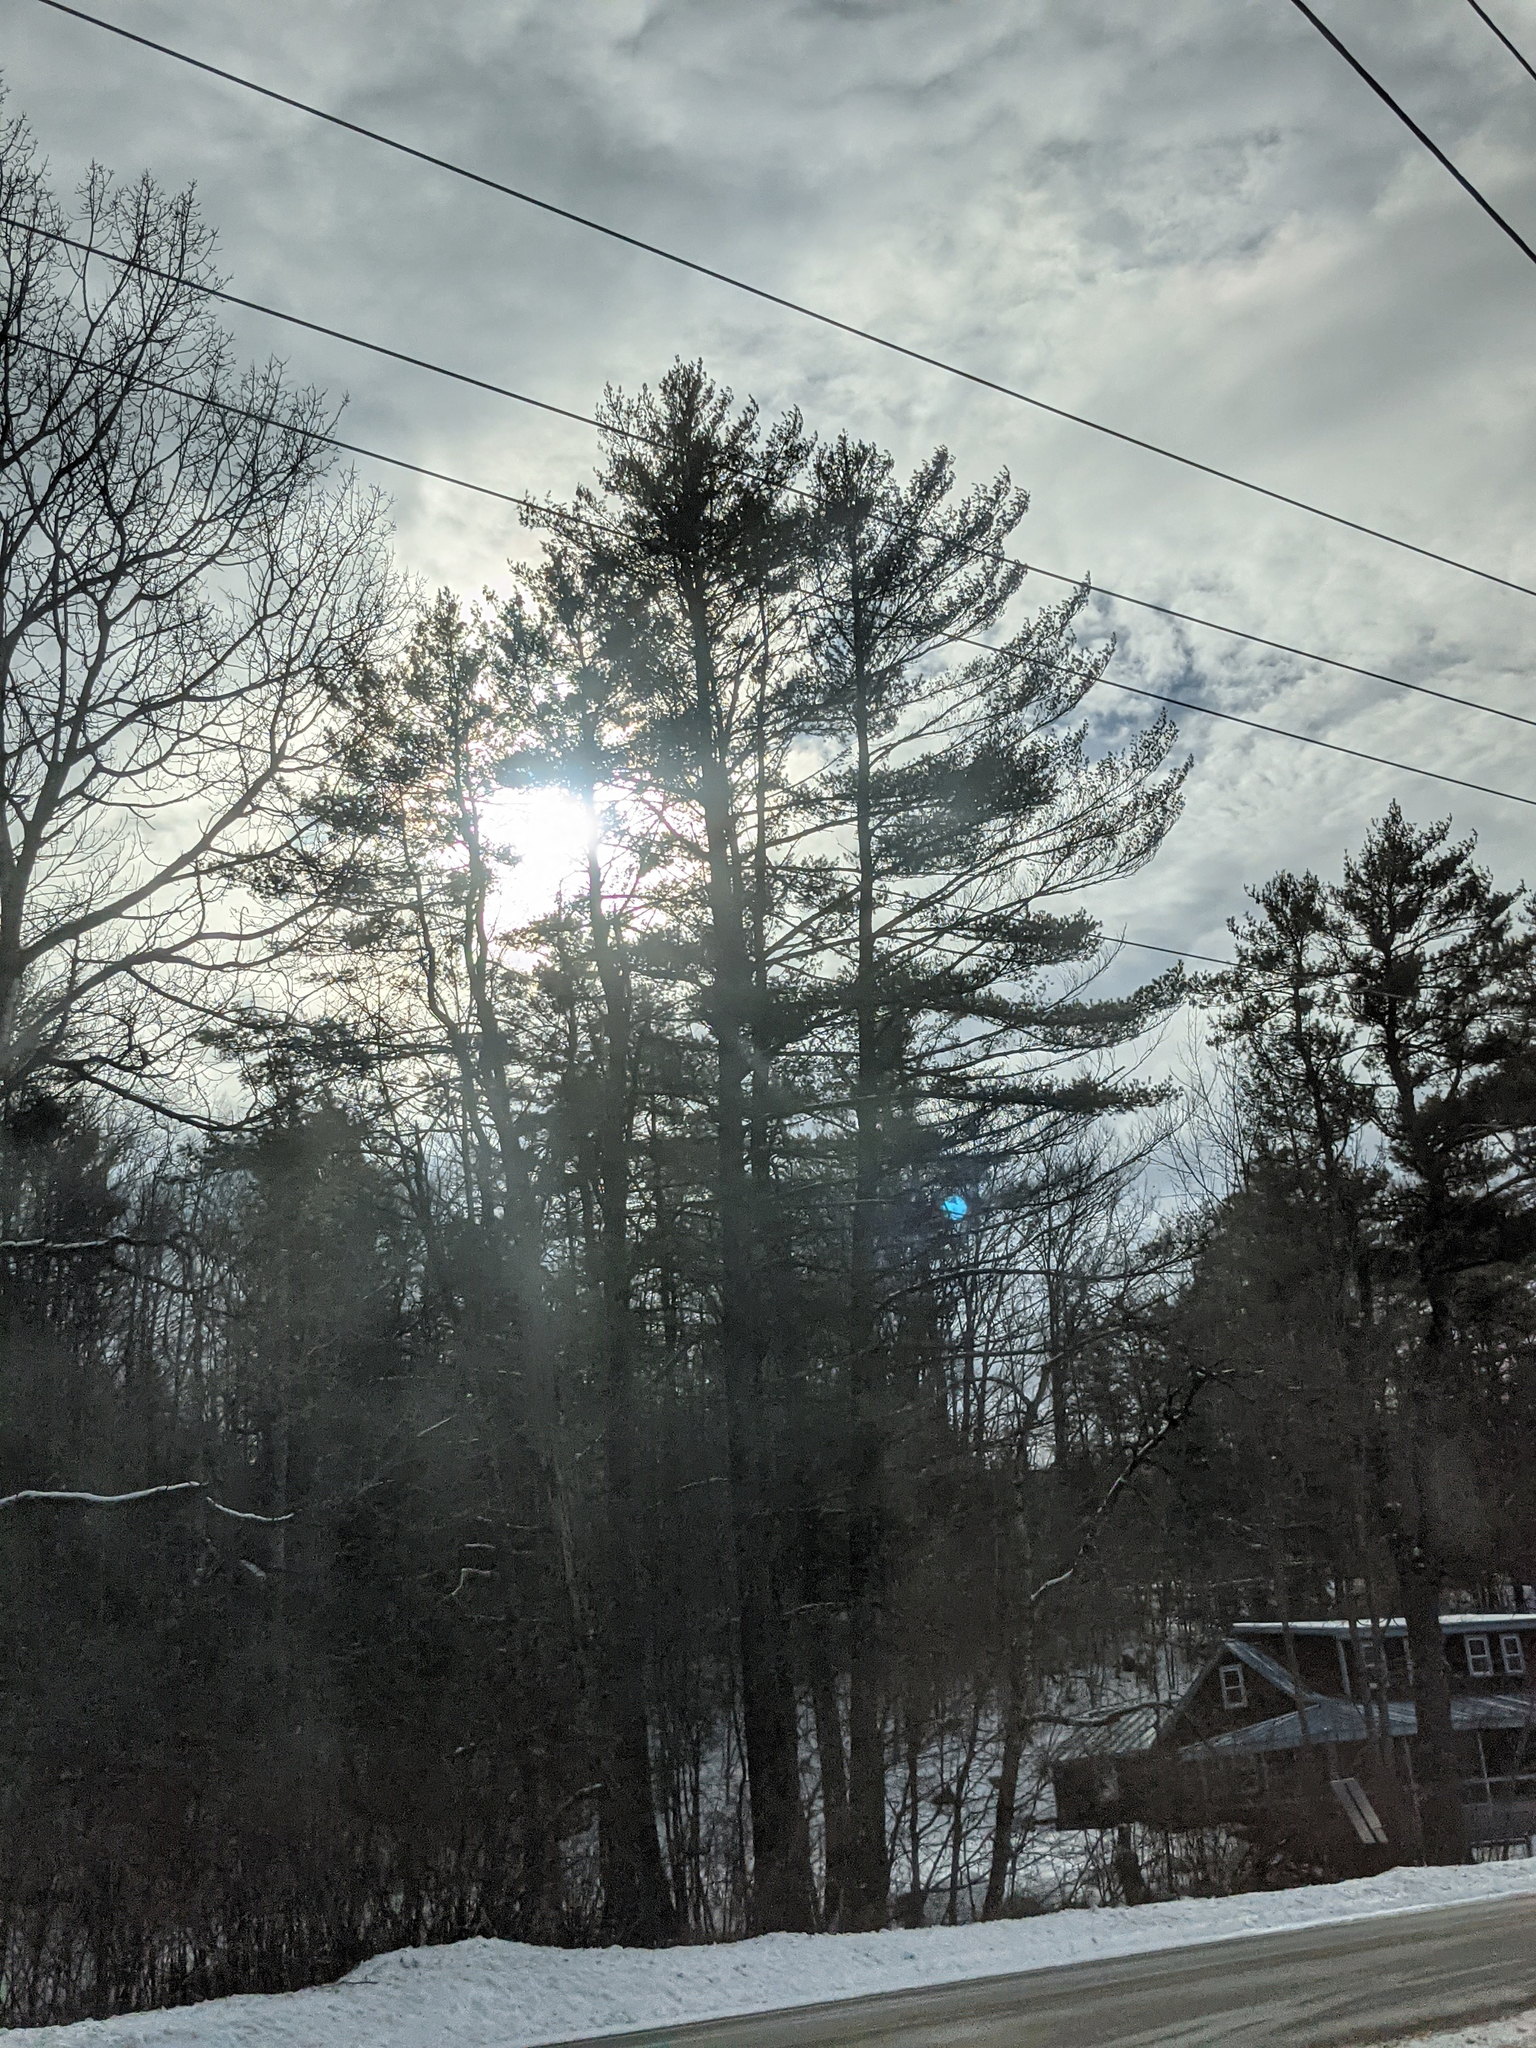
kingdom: Plantae
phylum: Tracheophyta
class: Pinopsida
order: Pinales
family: Pinaceae
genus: Pinus
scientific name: Pinus strobus
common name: Weymouth pine
